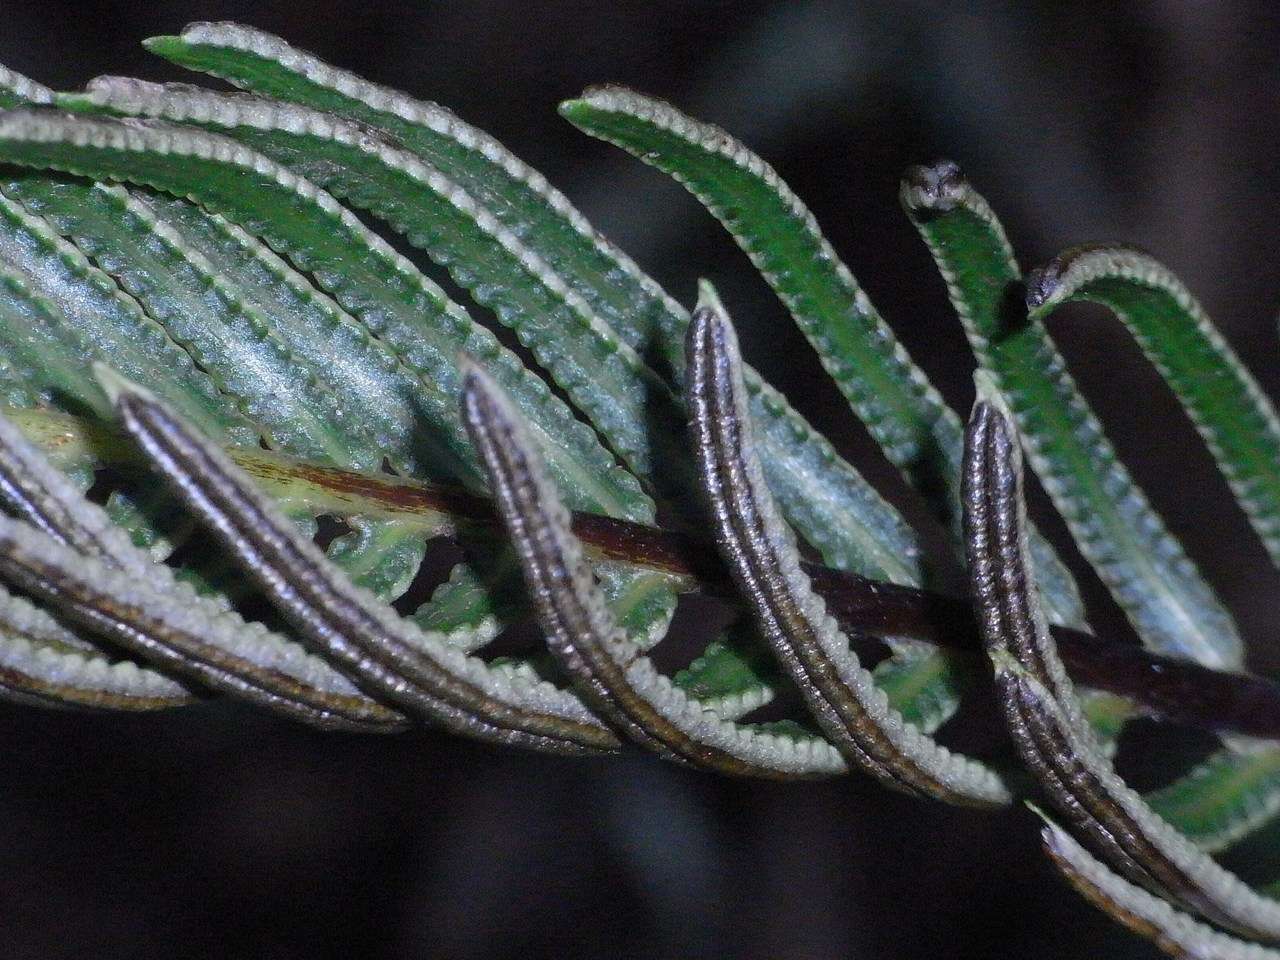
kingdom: Plantae
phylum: Tracheophyta
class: Polypodiopsida
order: Polypodiales
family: Blechnaceae
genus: Lomaria
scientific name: Lomaria nuda
